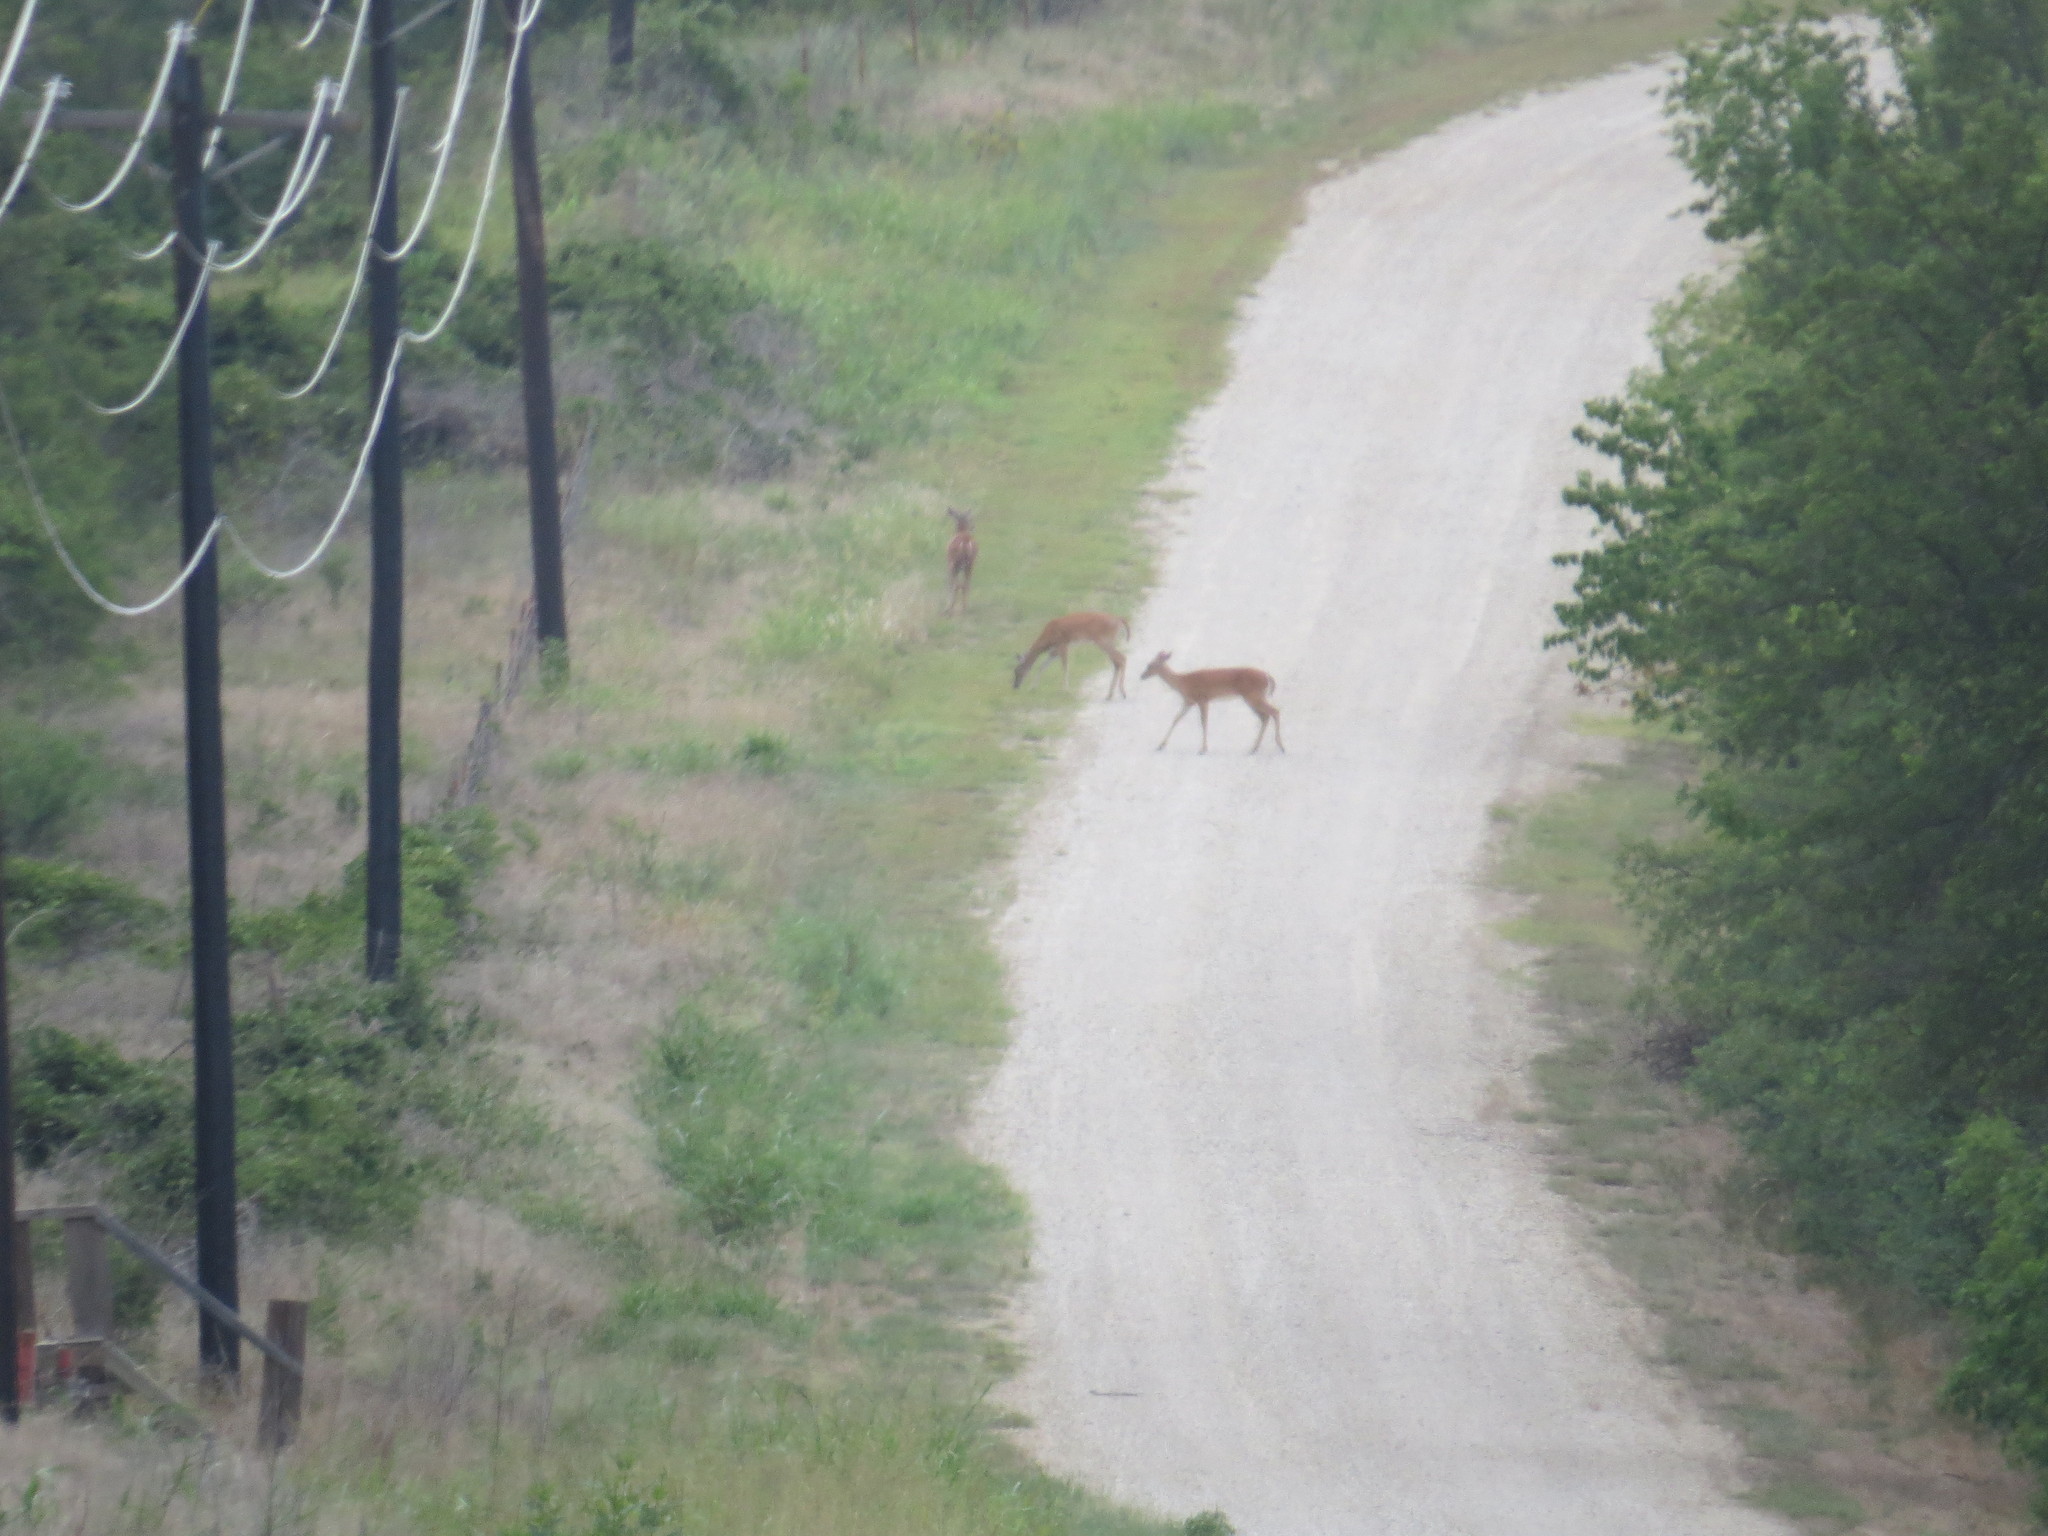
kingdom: Animalia
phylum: Chordata
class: Mammalia
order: Artiodactyla
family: Cervidae
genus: Odocoileus
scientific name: Odocoileus virginianus
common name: White-tailed deer
